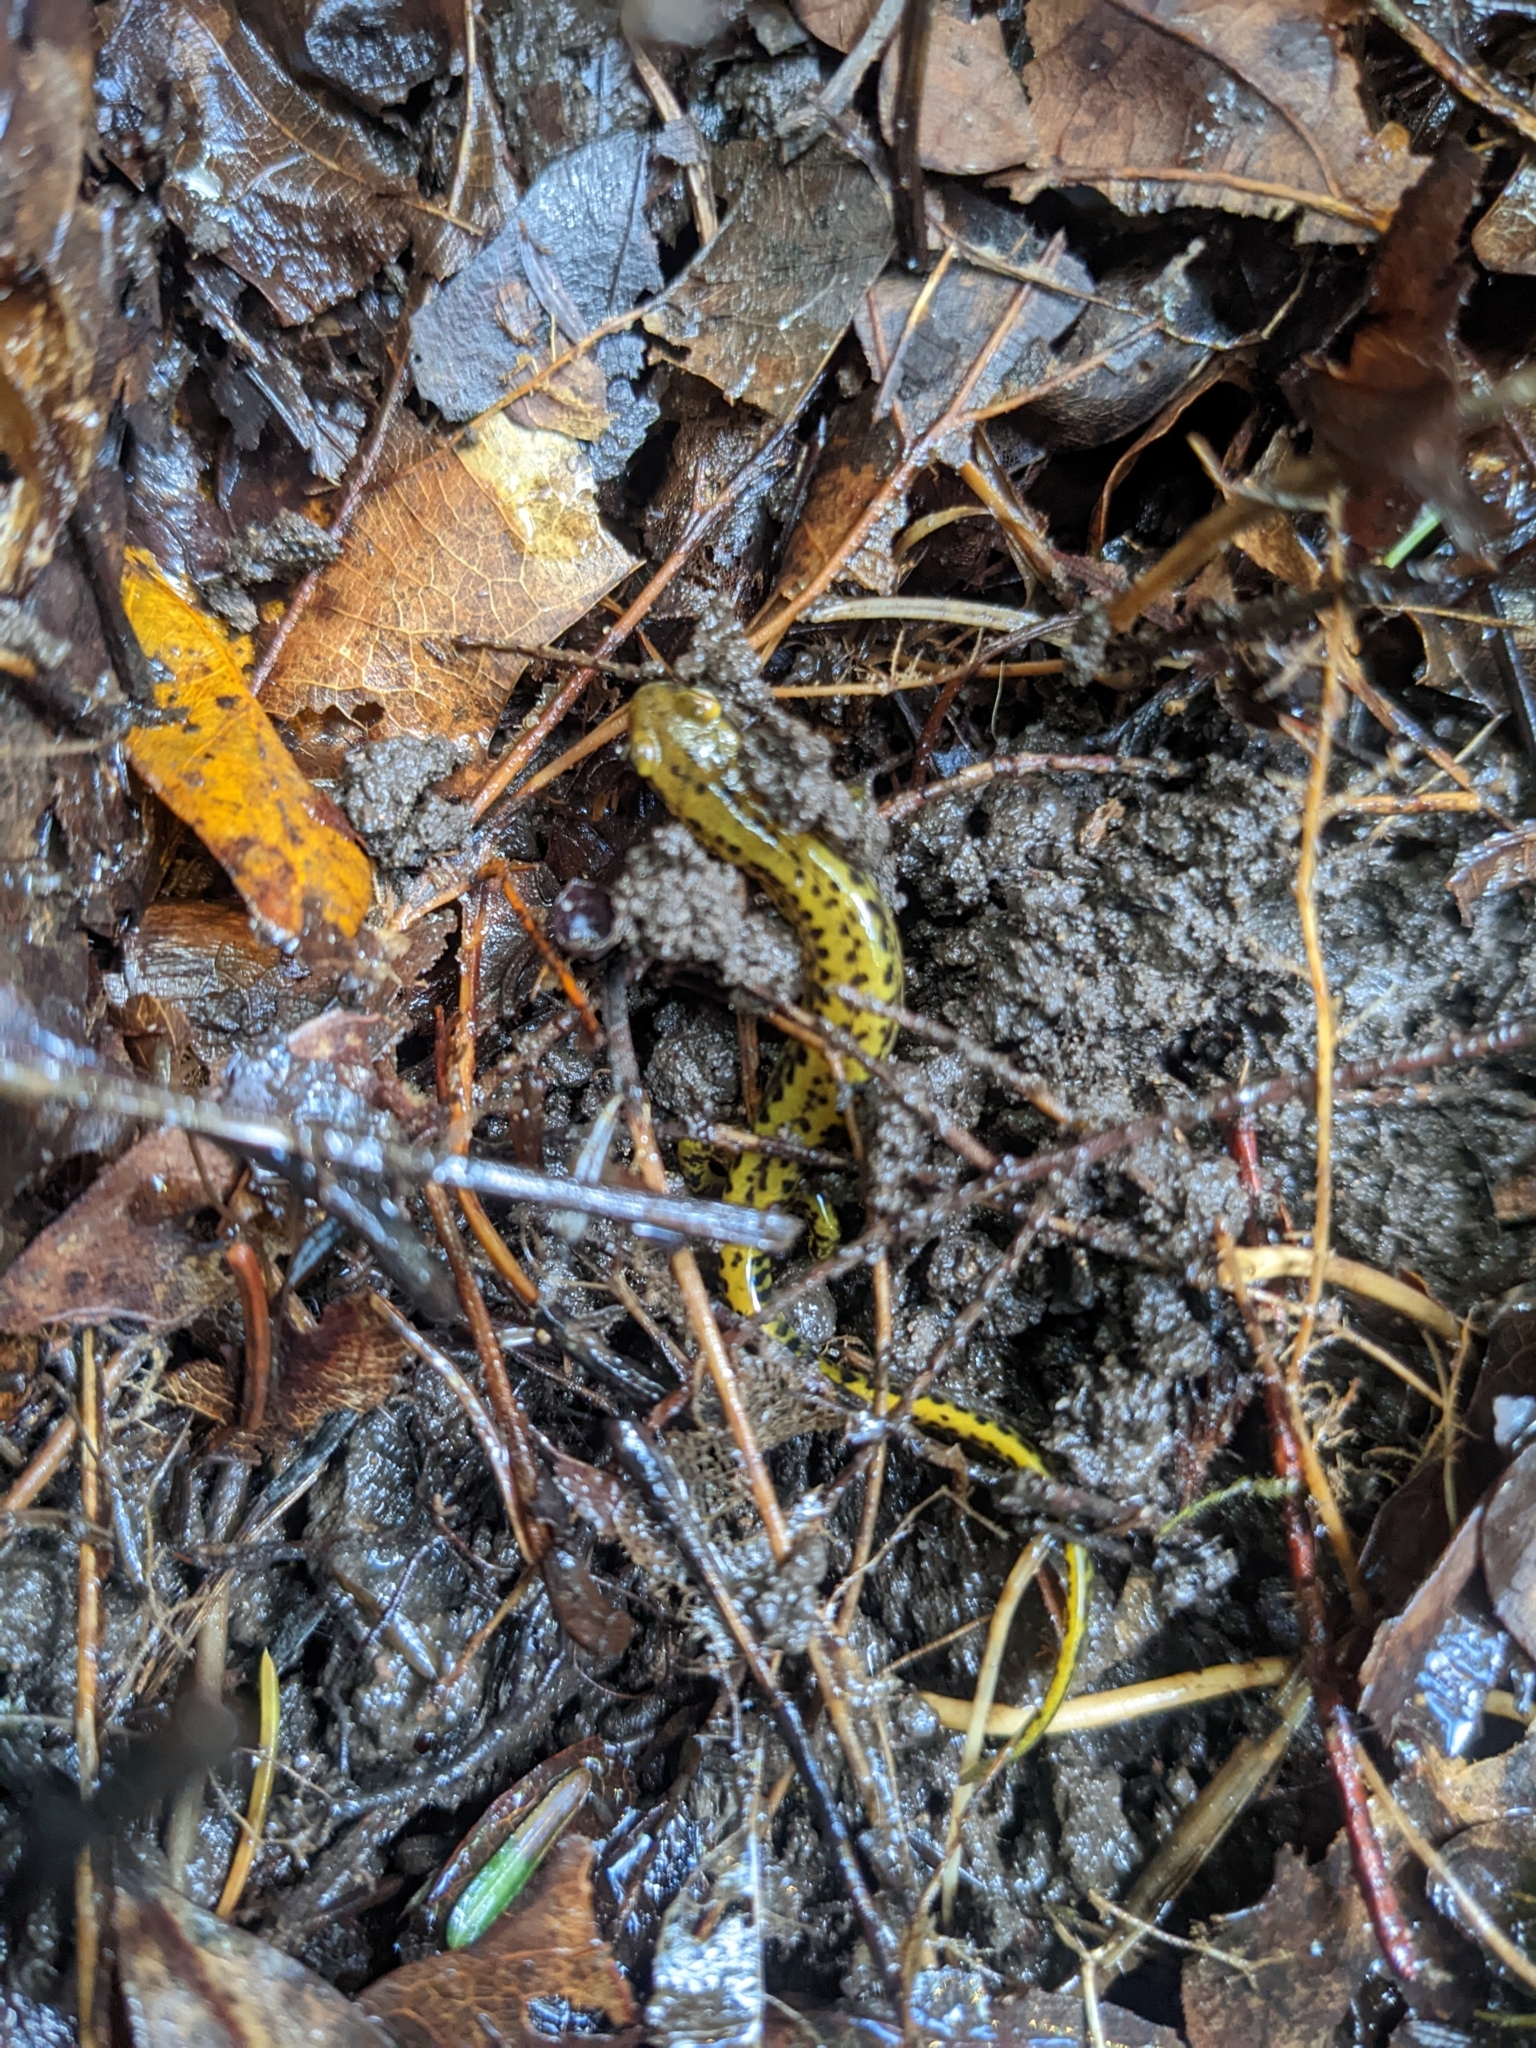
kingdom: Animalia
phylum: Chordata
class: Amphibia
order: Caudata
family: Plethodontidae
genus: Eurycea
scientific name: Eurycea longicauda
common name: Long-tailed salamander
